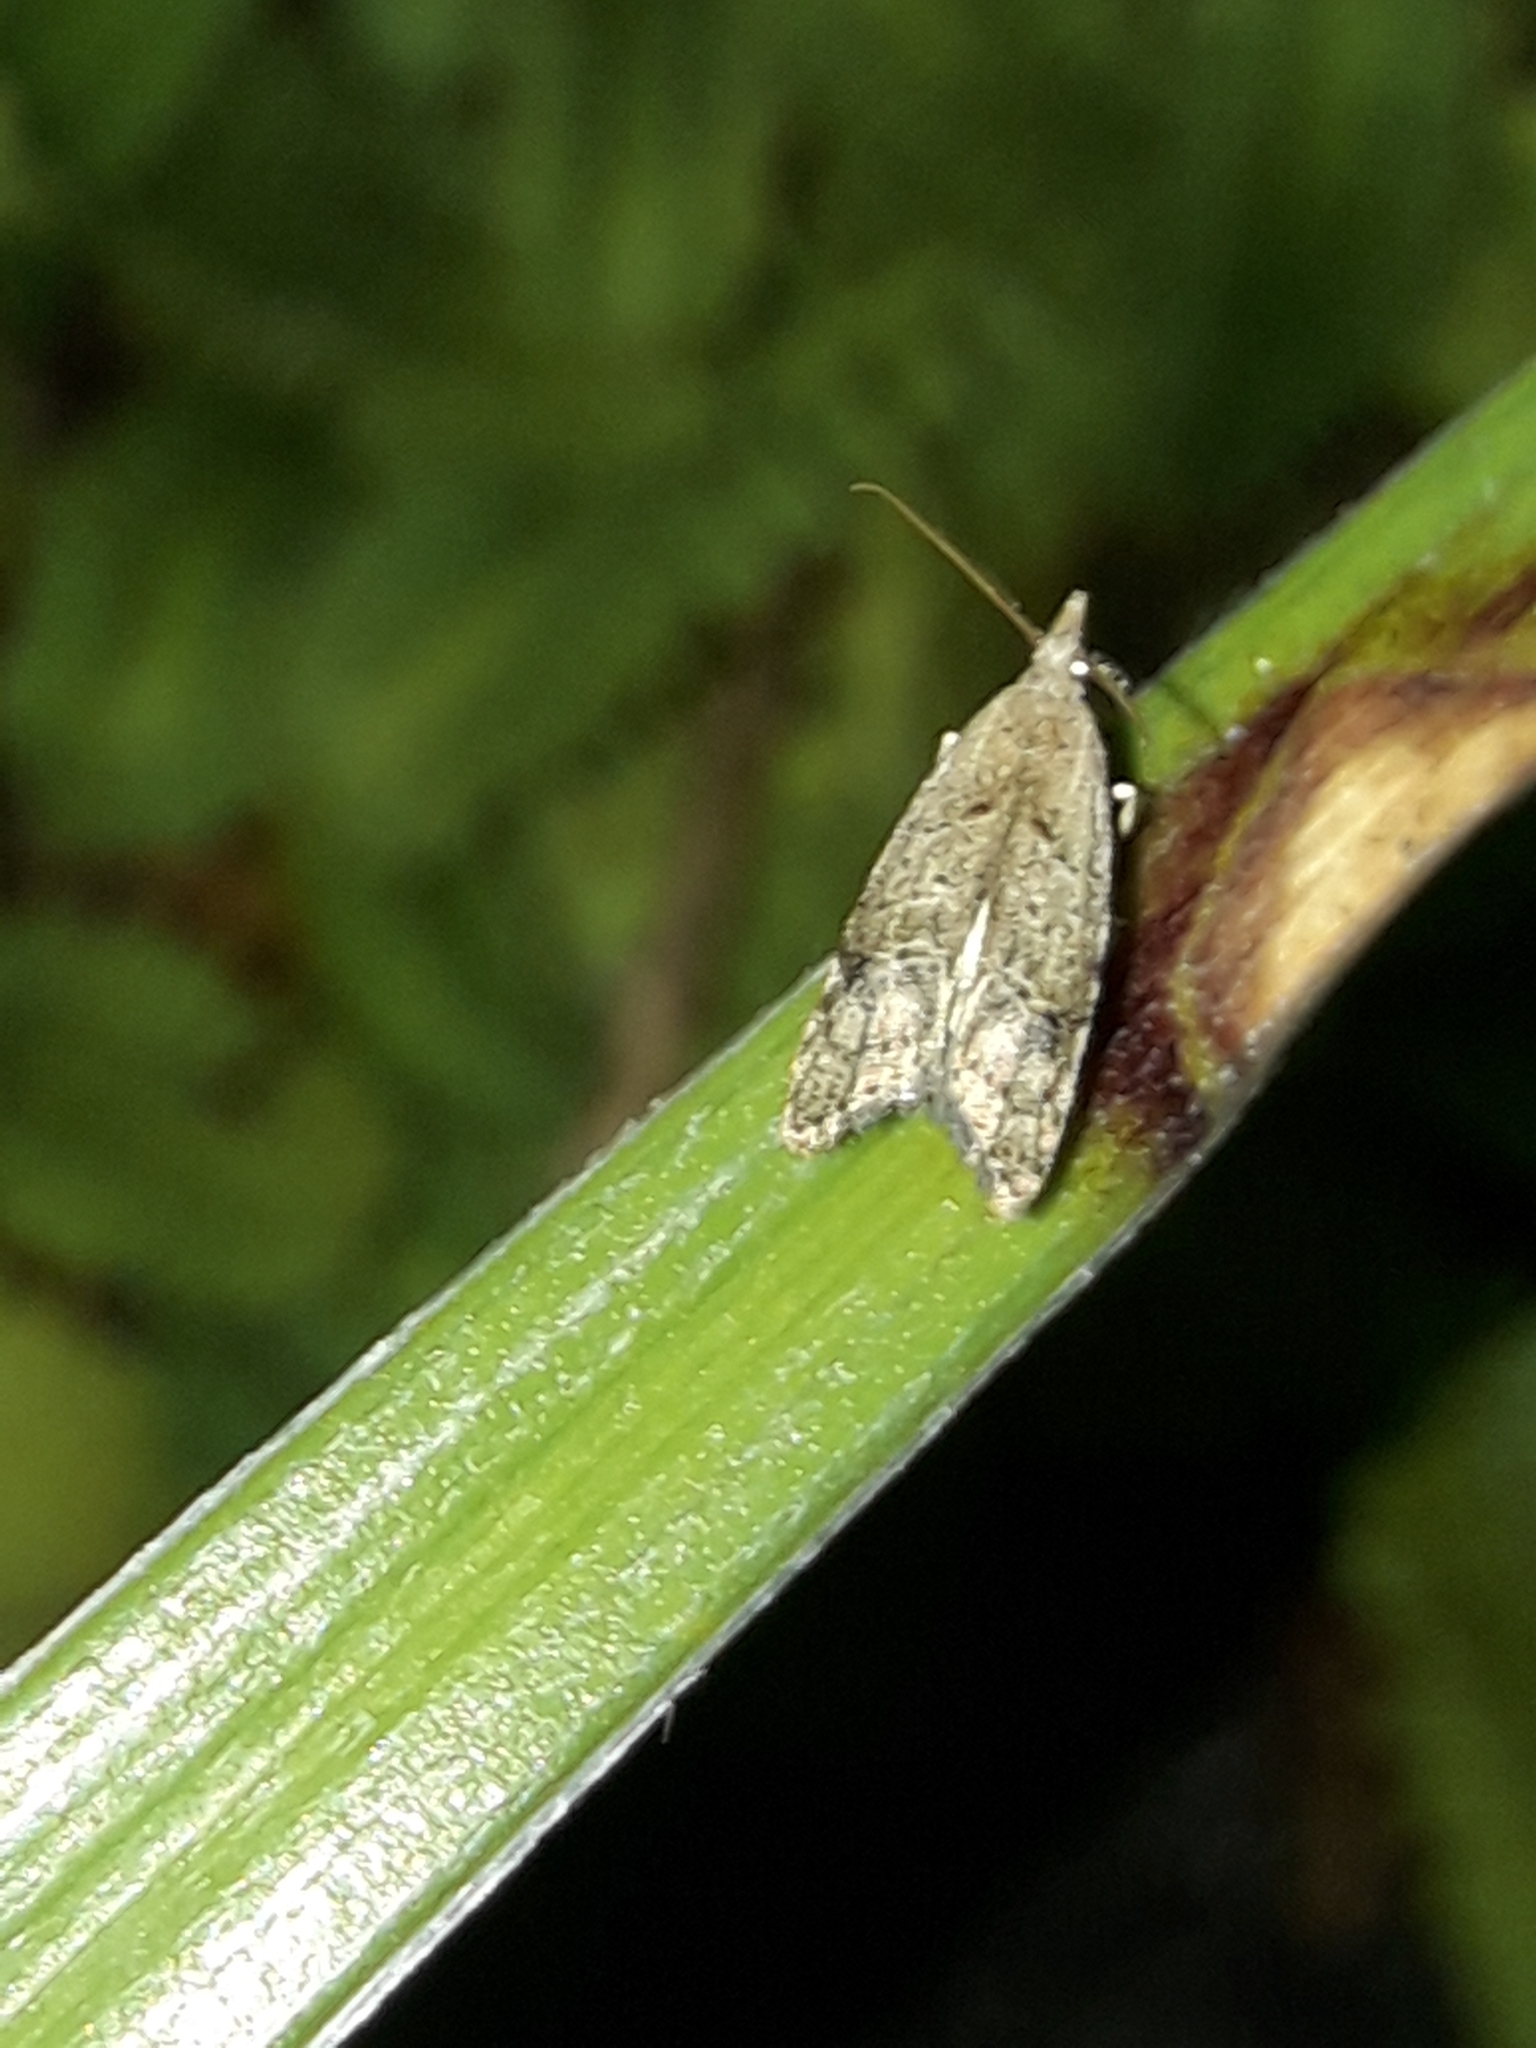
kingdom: Animalia
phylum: Arthropoda
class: Insecta
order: Lepidoptera
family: Carposinidae
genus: Carposina
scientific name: Carposina rubophaga
